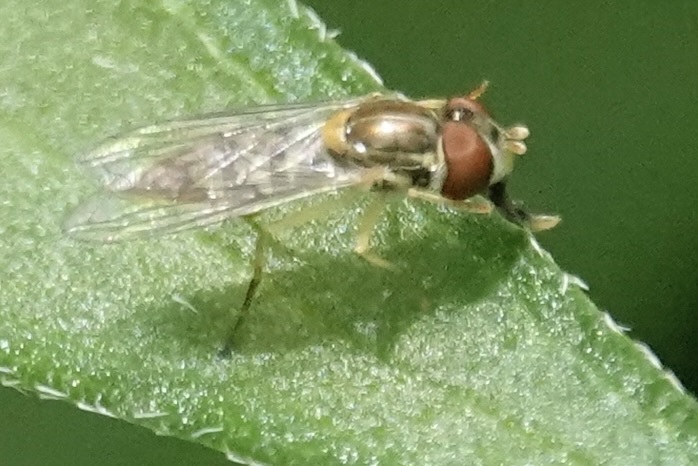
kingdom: Animalia
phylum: Arthropoda
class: Insecta
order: Diptera
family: Syrphidae
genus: Toxomerus
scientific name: Toxomerus marginatus
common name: Syrphid fly
